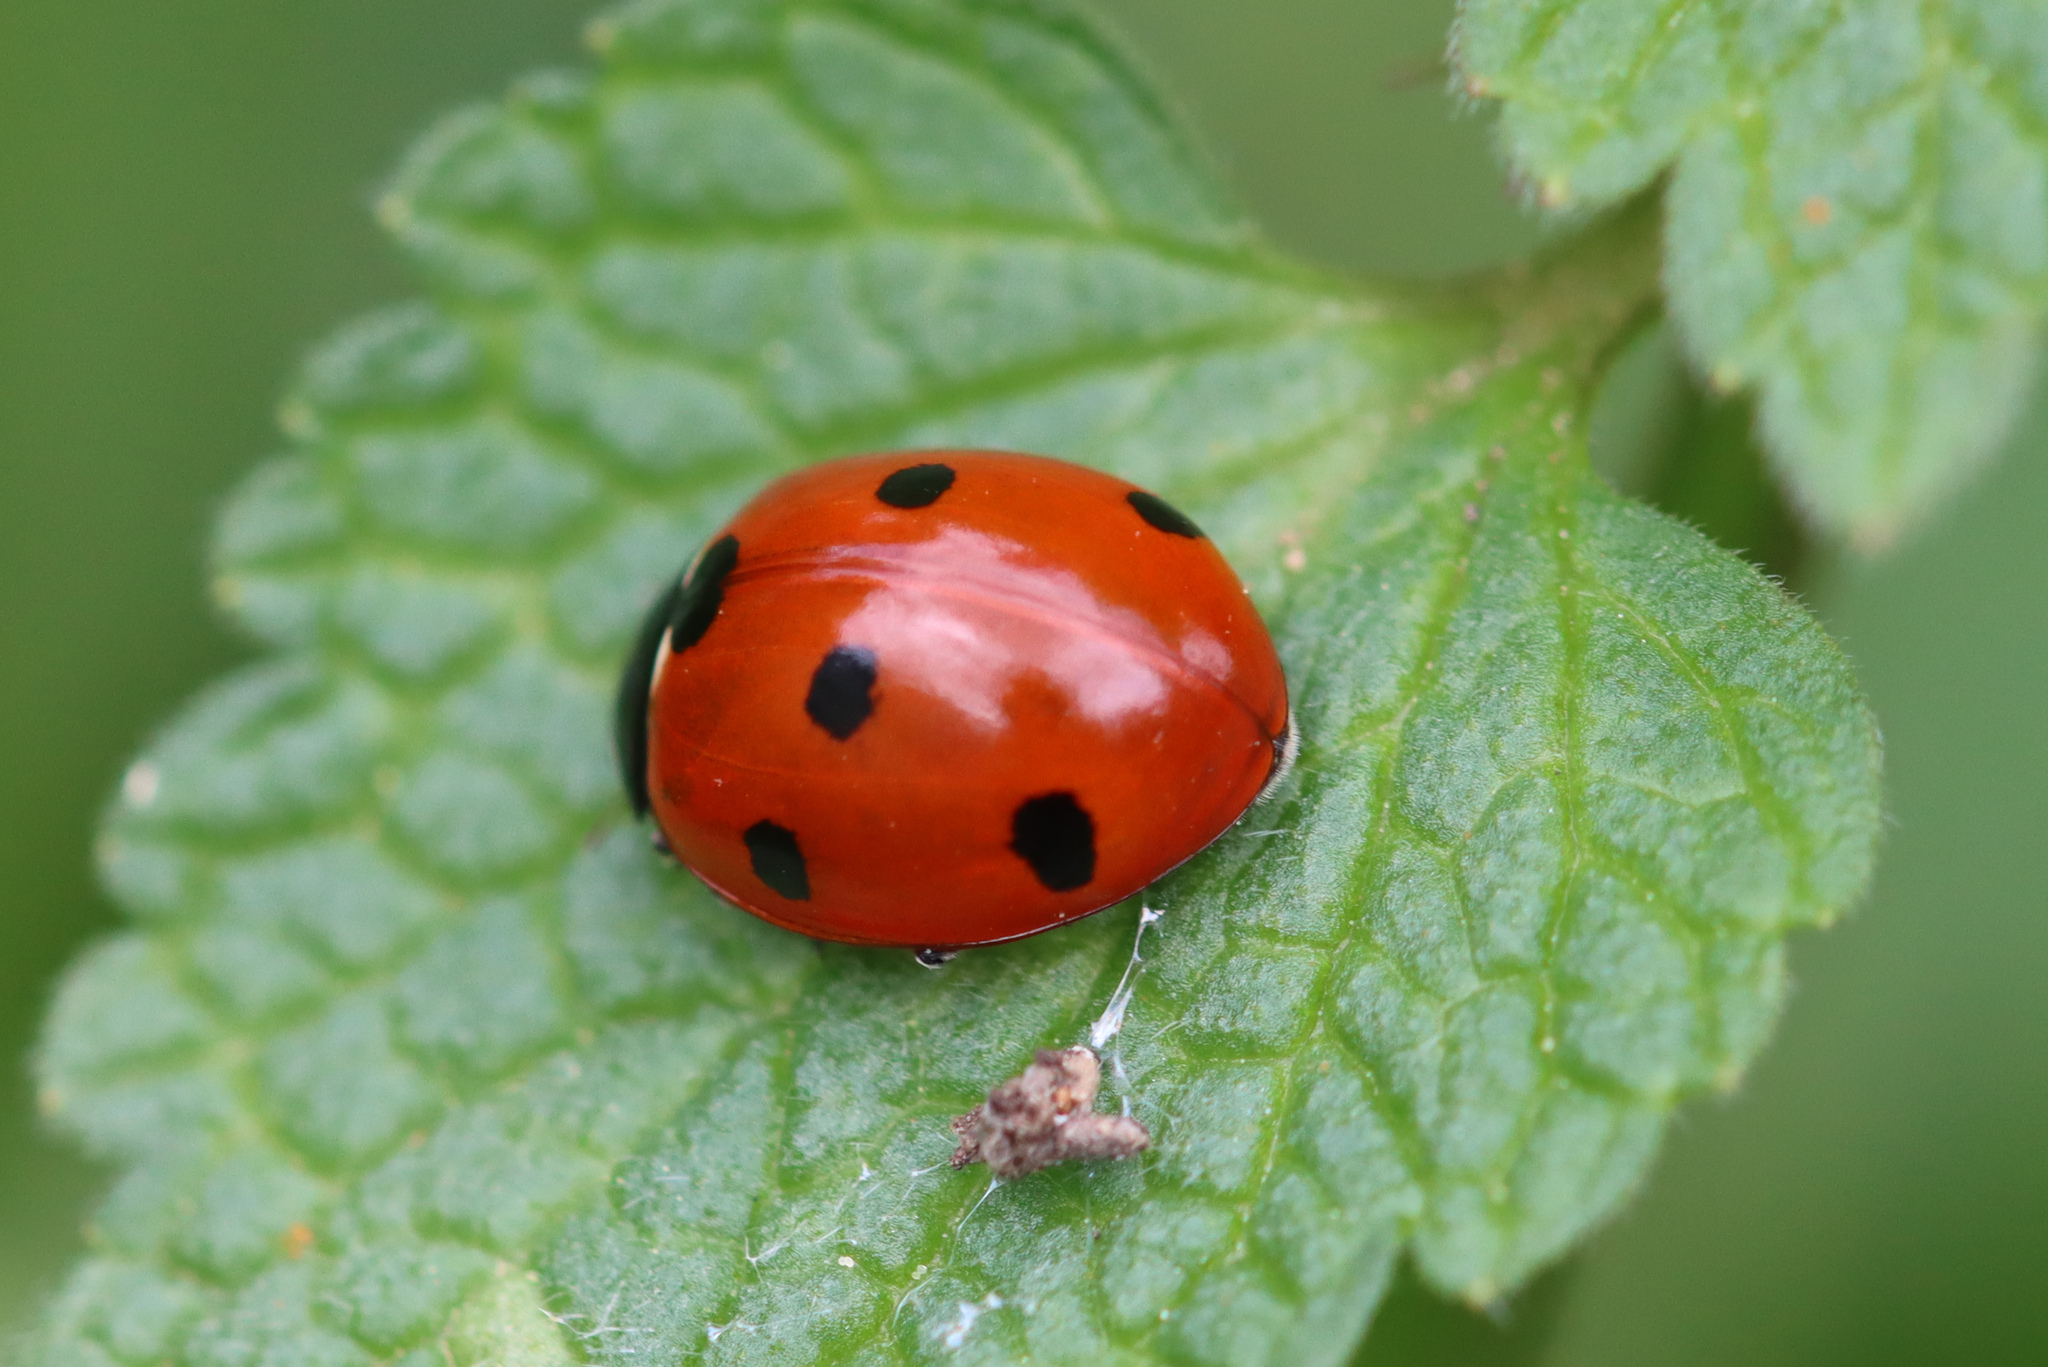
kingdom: Animalia
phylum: Arthropoda
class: Insecta
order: Coleoptera
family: Coccinellidae
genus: Coccinella
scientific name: Coccinella septempunctata
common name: Sevenspotted lady beetle
